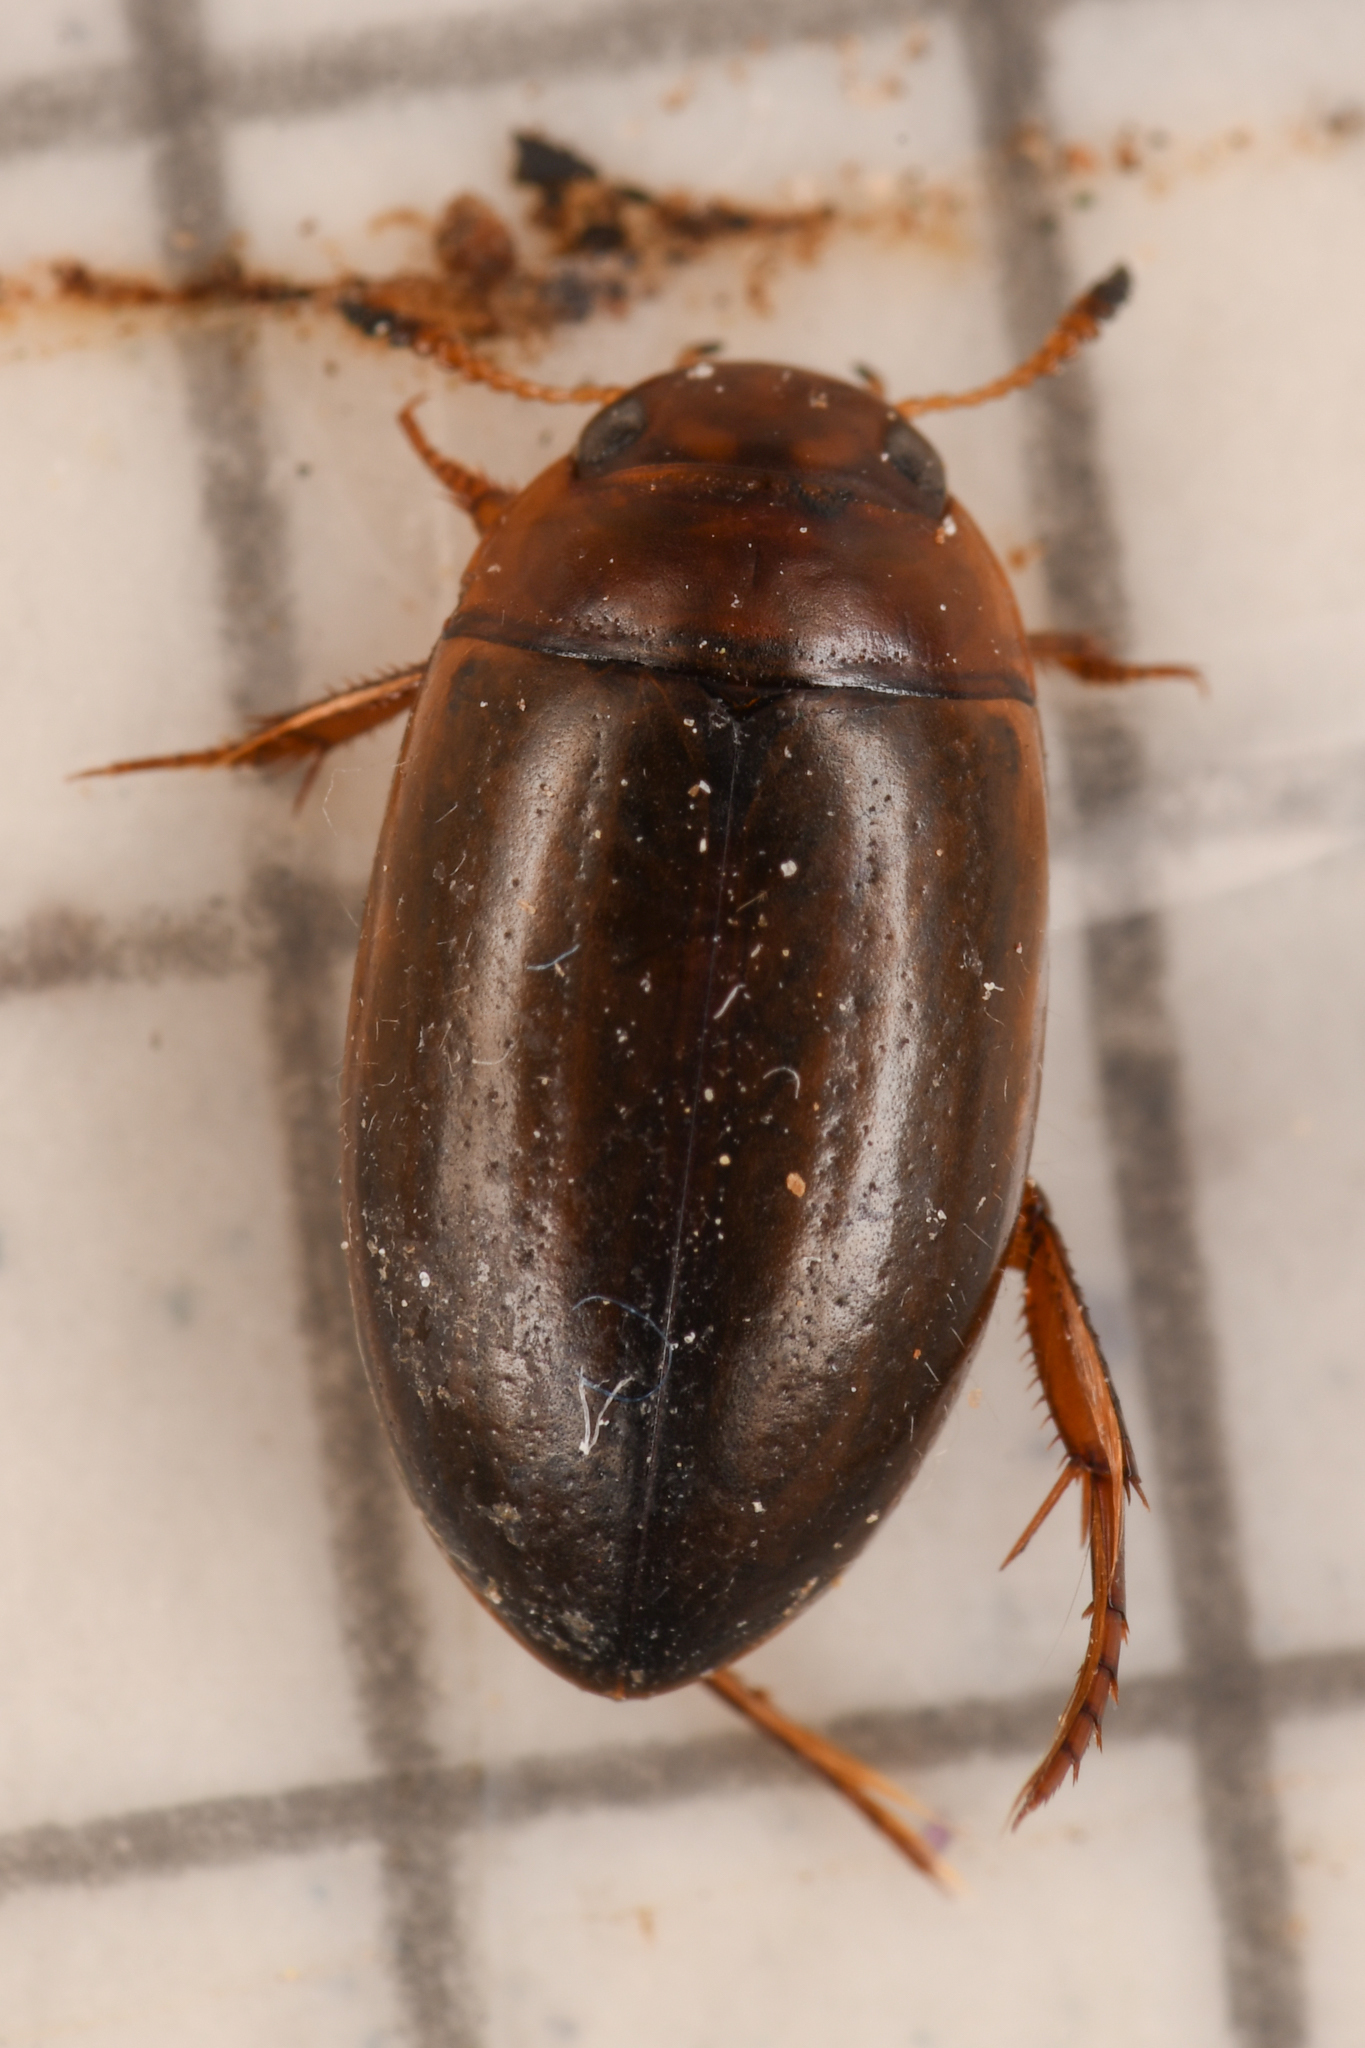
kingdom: Animalia
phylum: Arthropoda
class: Insecta
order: Coleoptera
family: Dytiscidae
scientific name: Dytiscidae
